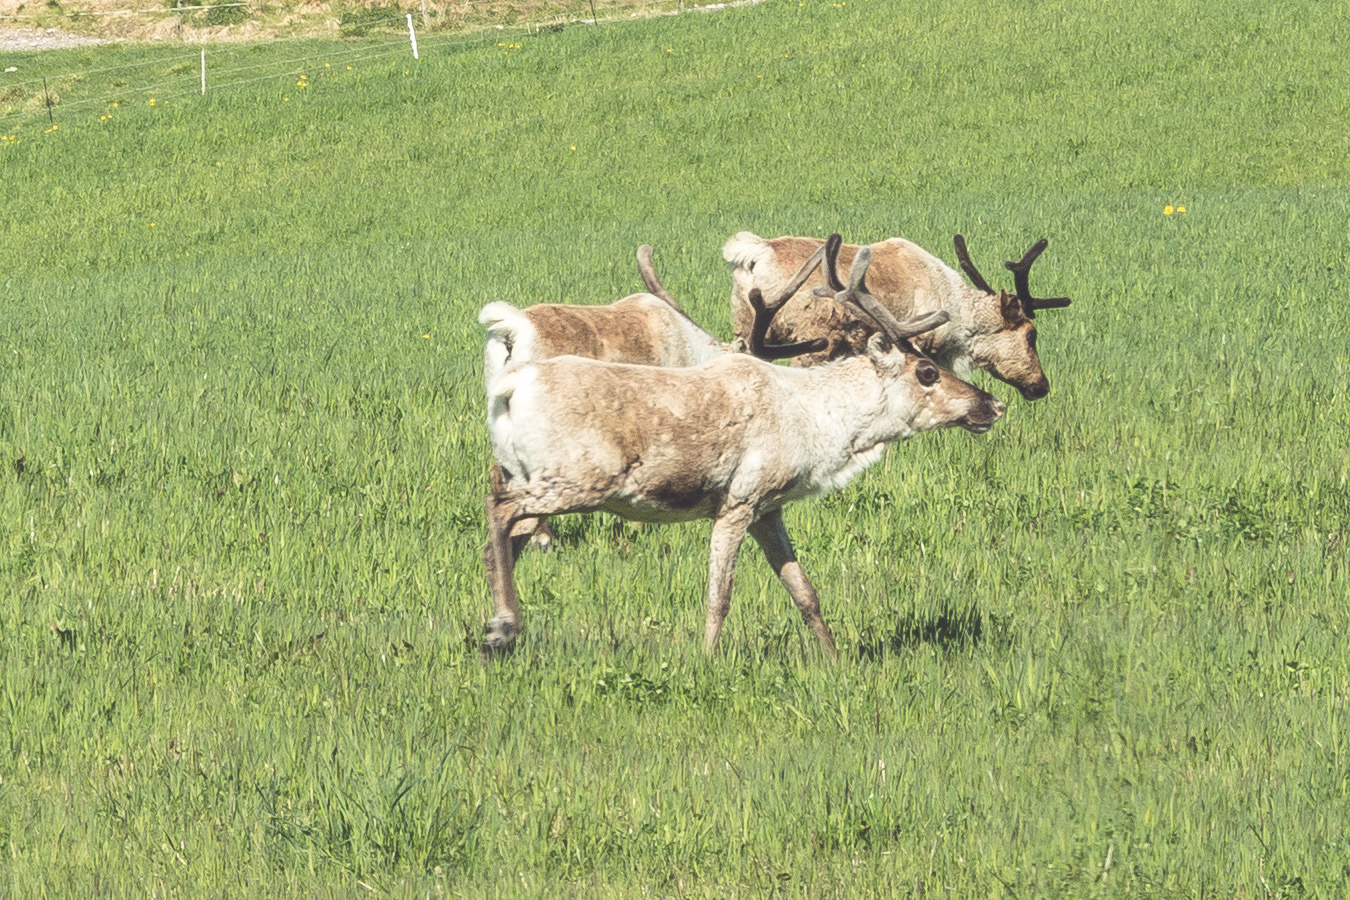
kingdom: Animalia
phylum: Chordata
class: Mammalia
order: Artiodactyla
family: Cervidae
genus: Rangifer
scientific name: Rangifer tarandus
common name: Reindeer
